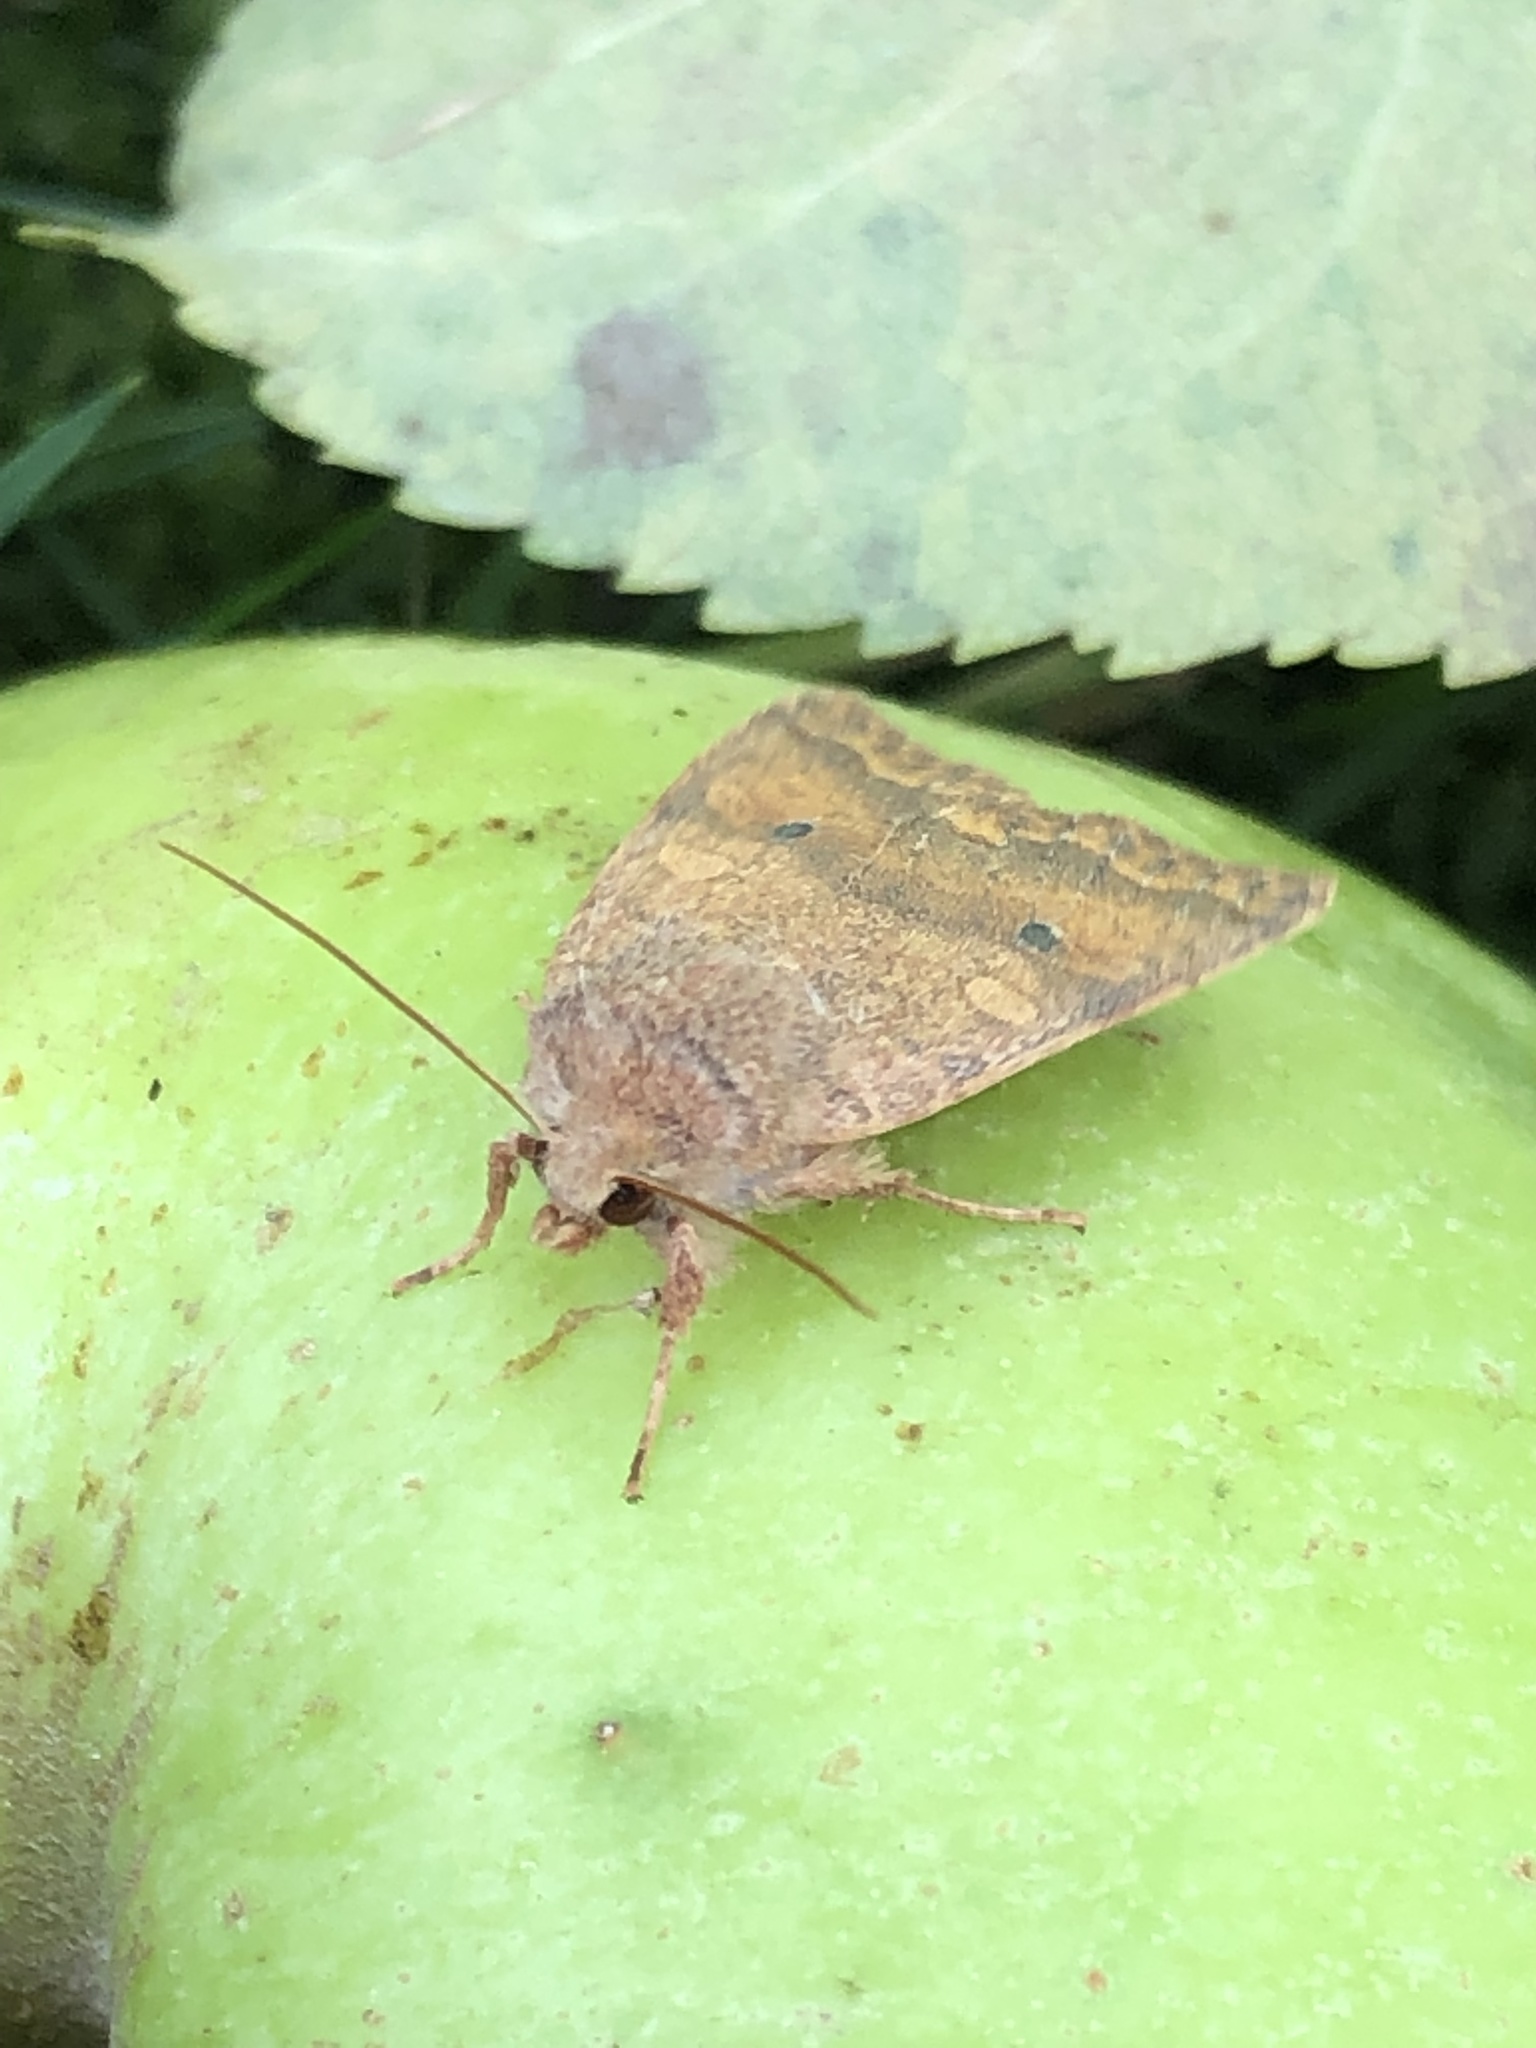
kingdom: Animalia
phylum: Arthropoda
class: Insecta
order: Lepidoptera
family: Noctuidae
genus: Agrochola
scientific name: Agrochola bicolorago
